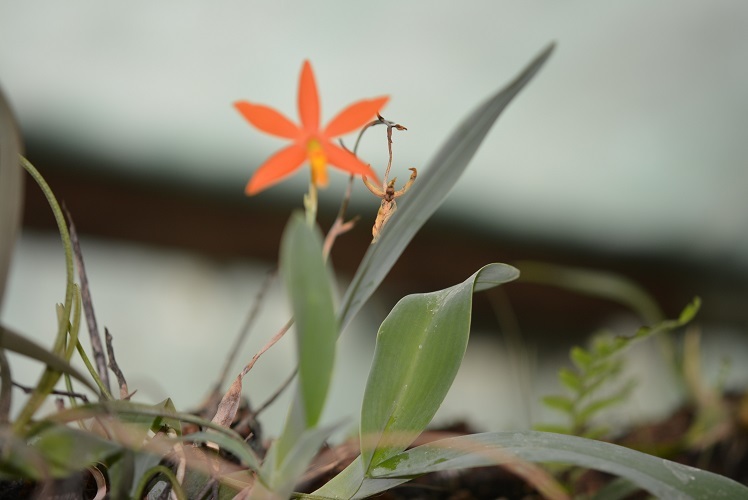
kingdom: Plantae
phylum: Tracheophyta
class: Liliopsida
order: Asparagales
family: Orchidaceae
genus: Prosthechea
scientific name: Prosthechea vitellina
